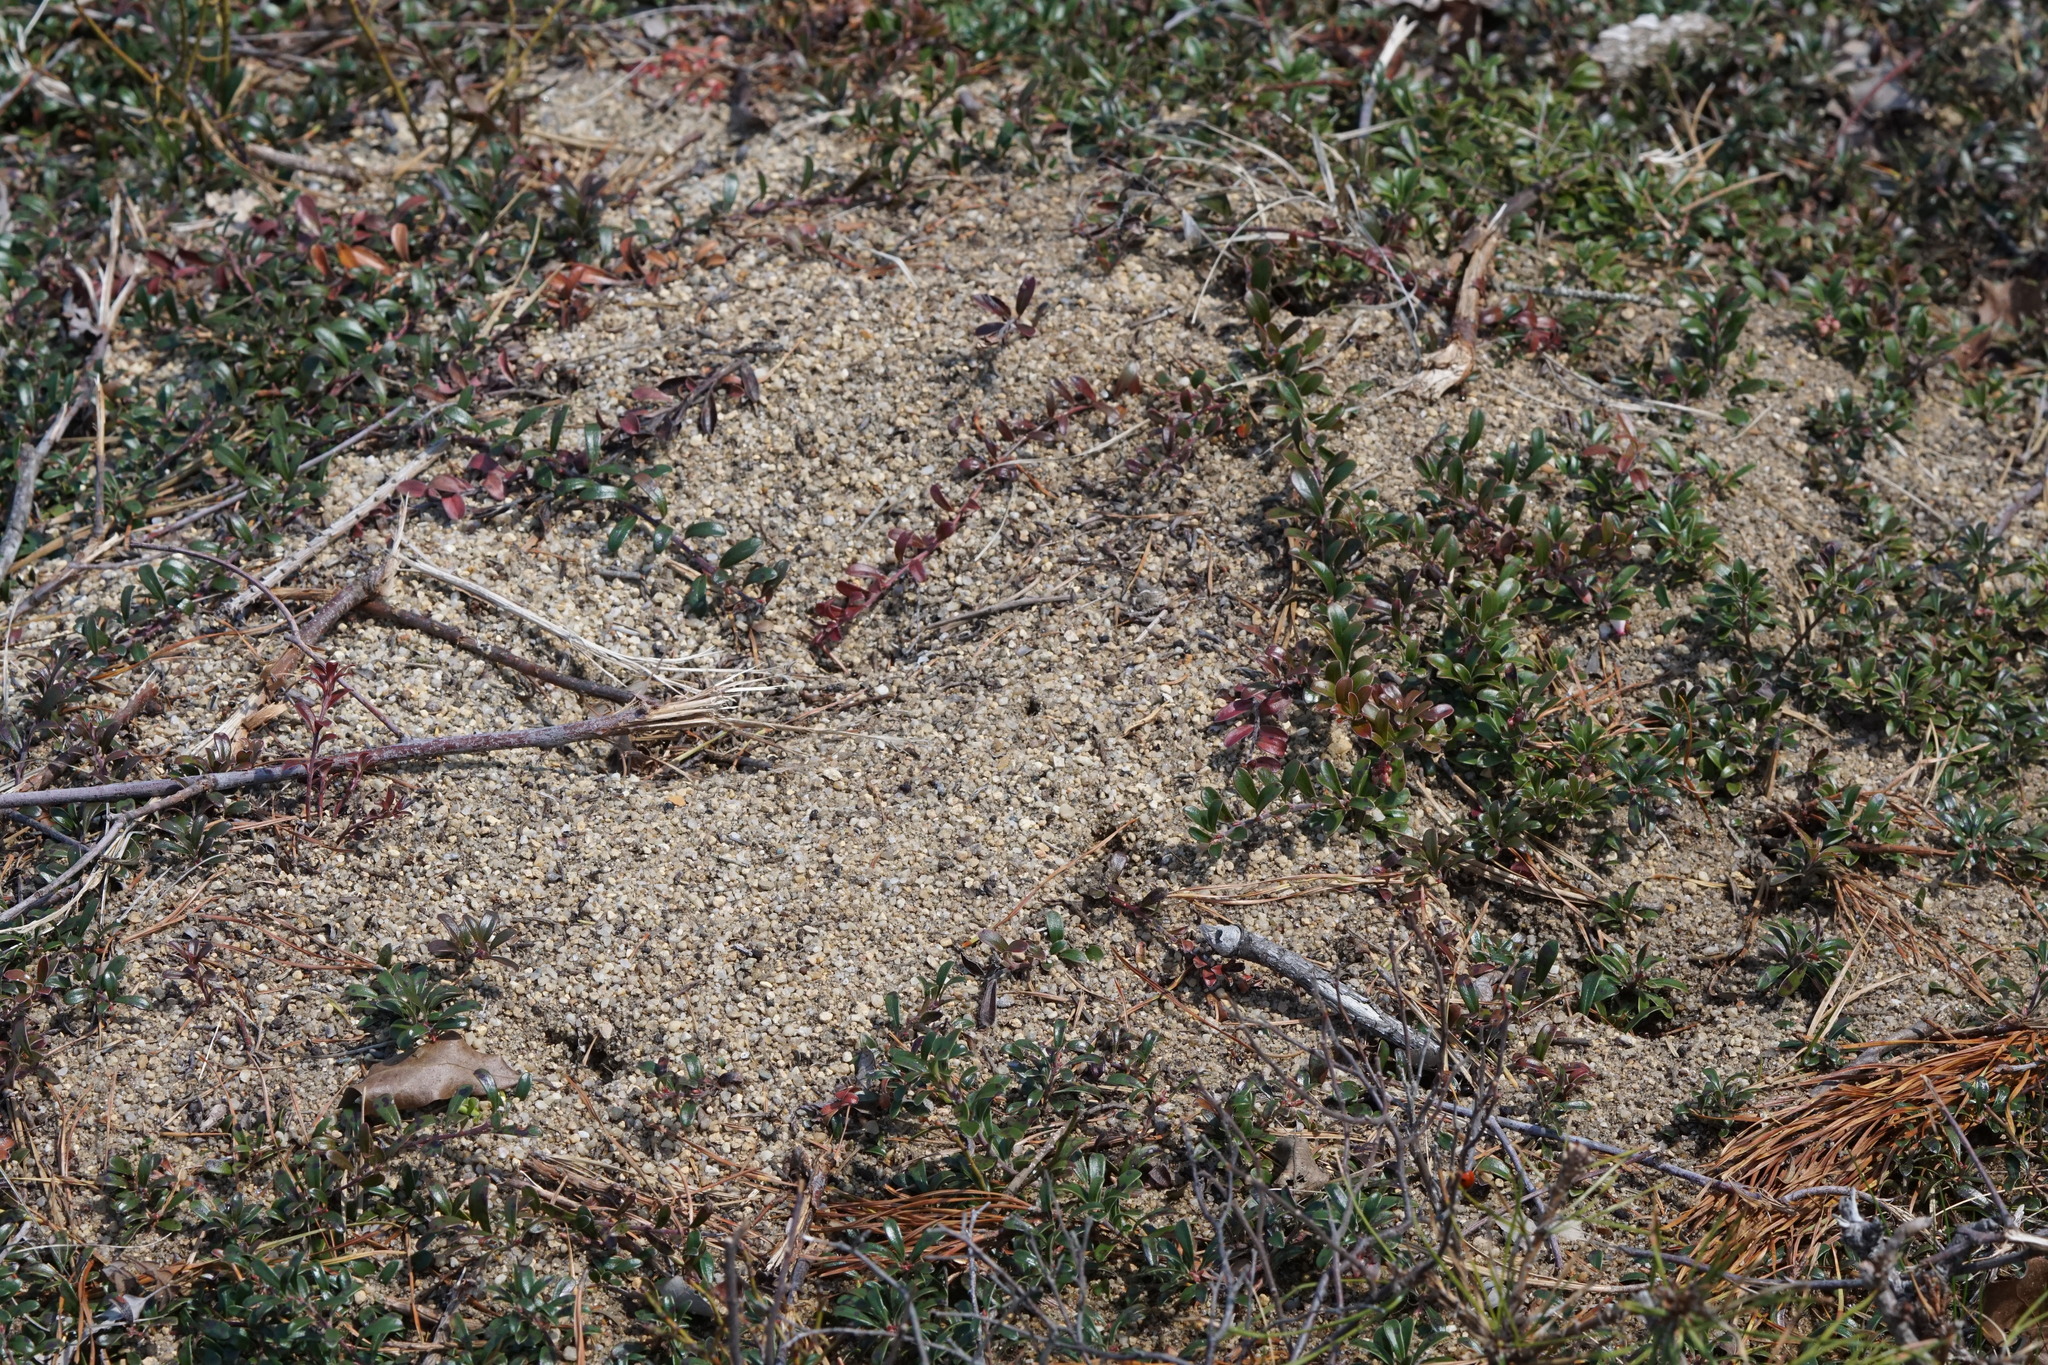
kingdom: Animalia
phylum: Arthropoda
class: Insecta
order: Hymenoptera
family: Formicidae
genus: Formica
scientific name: Formica exsectoides
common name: Allegheny mound ant
